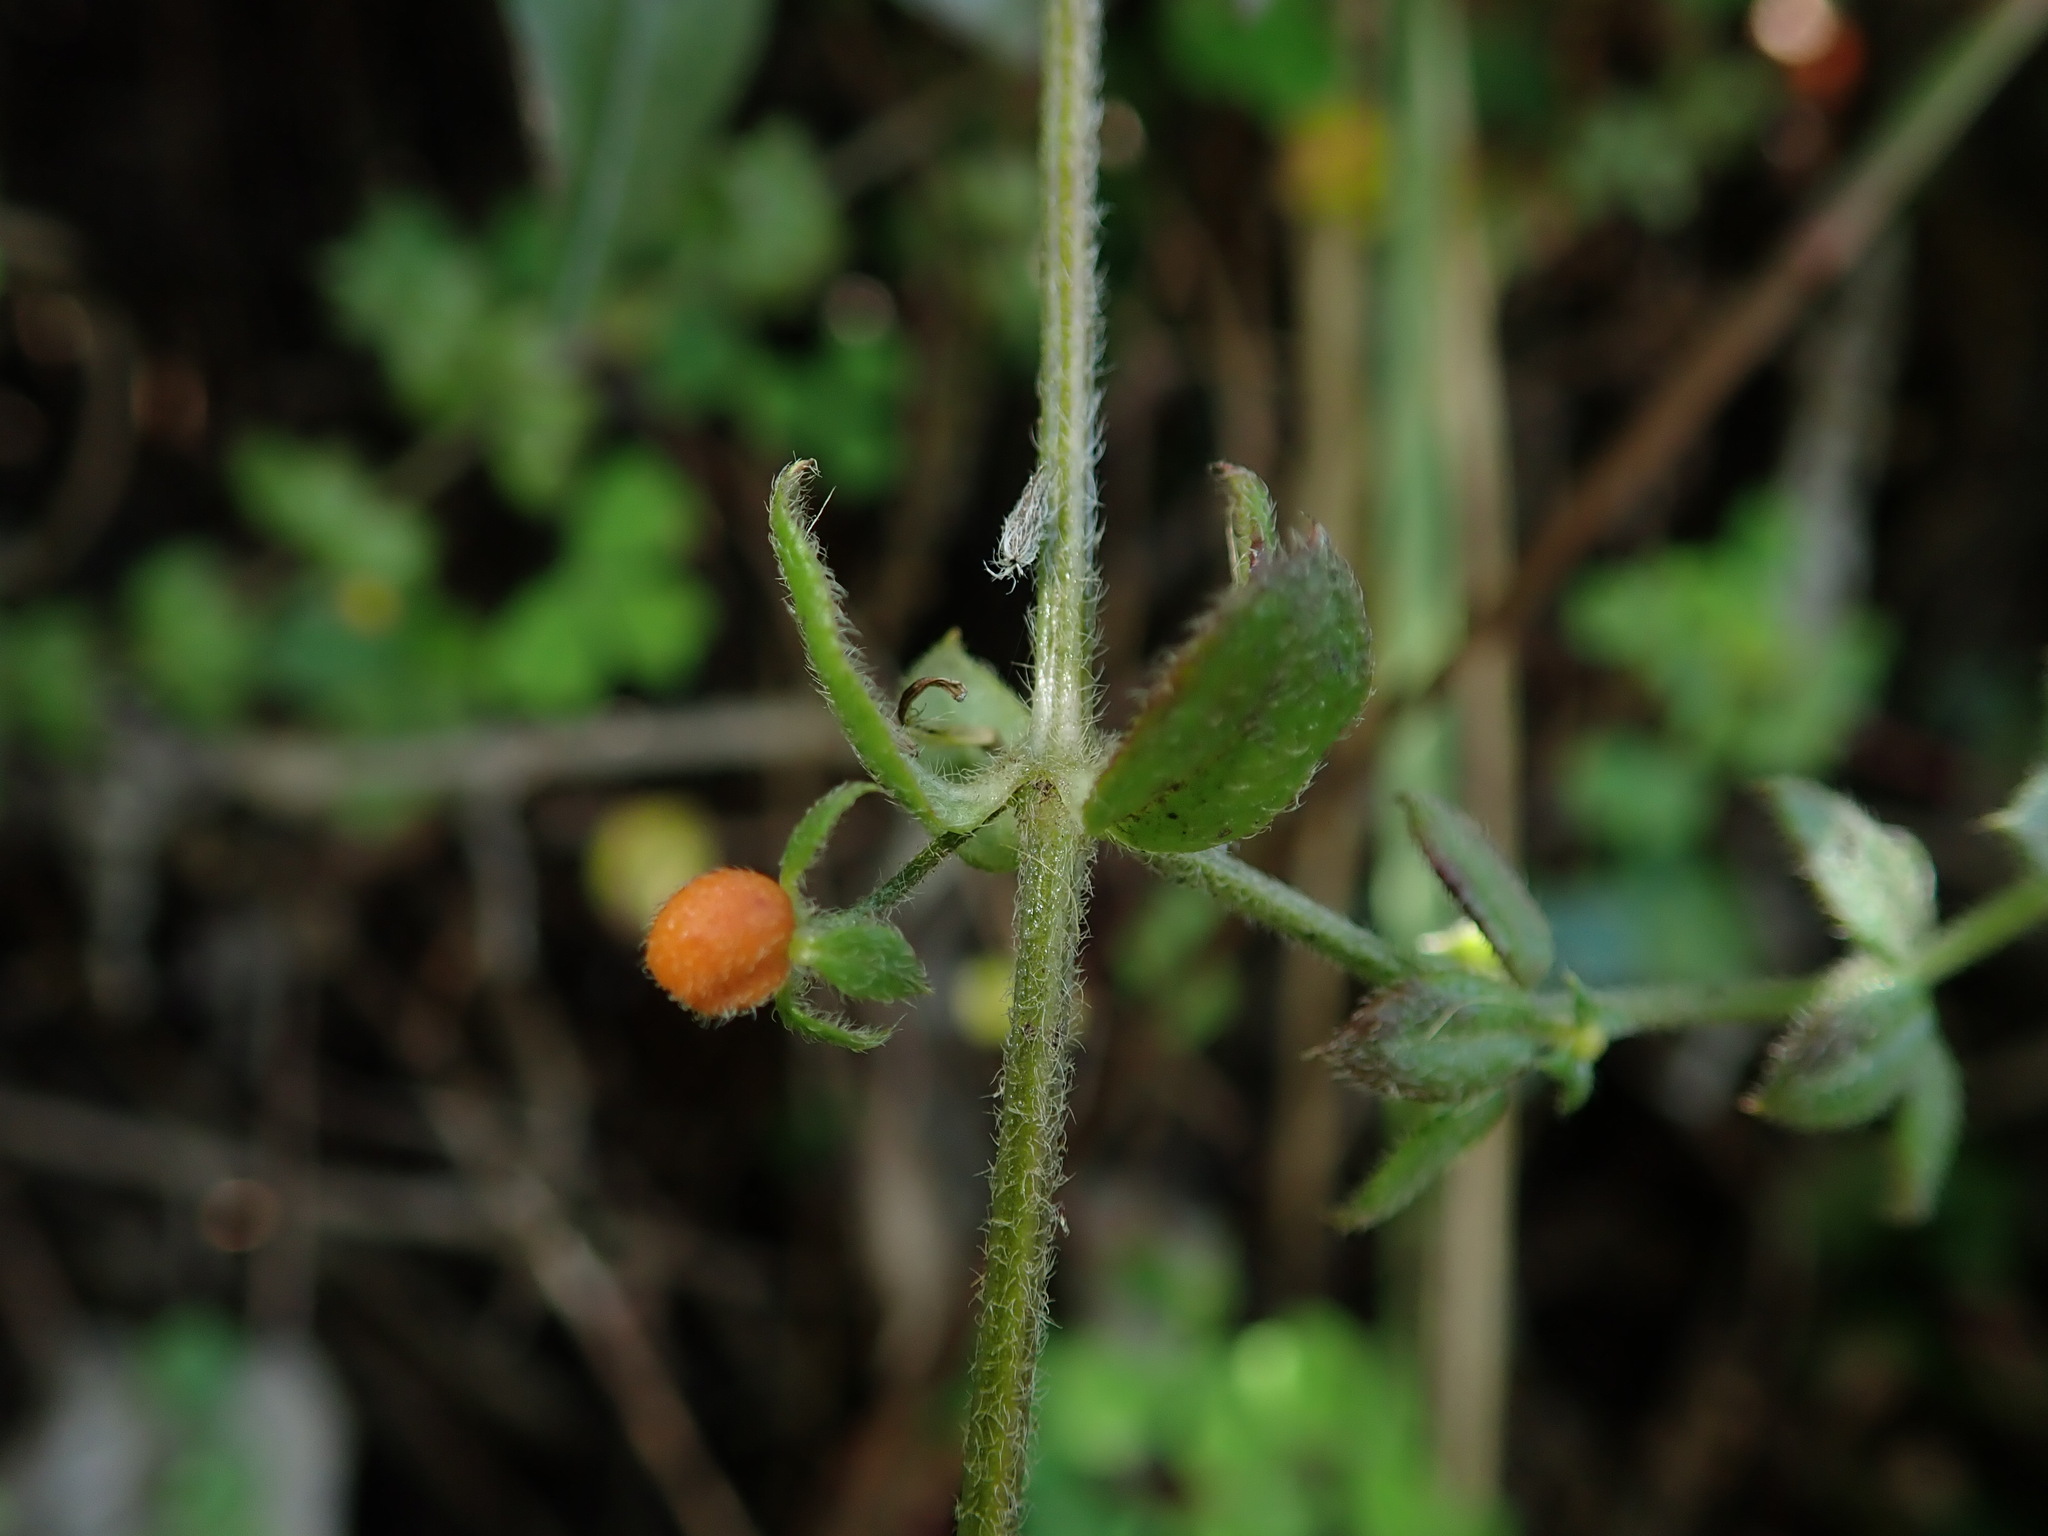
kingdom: Plantae
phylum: Tracheophyta
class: Magnoliopsida
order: Gentianales
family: Rubiaceae
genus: Galium
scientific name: Galium hypocarpium
